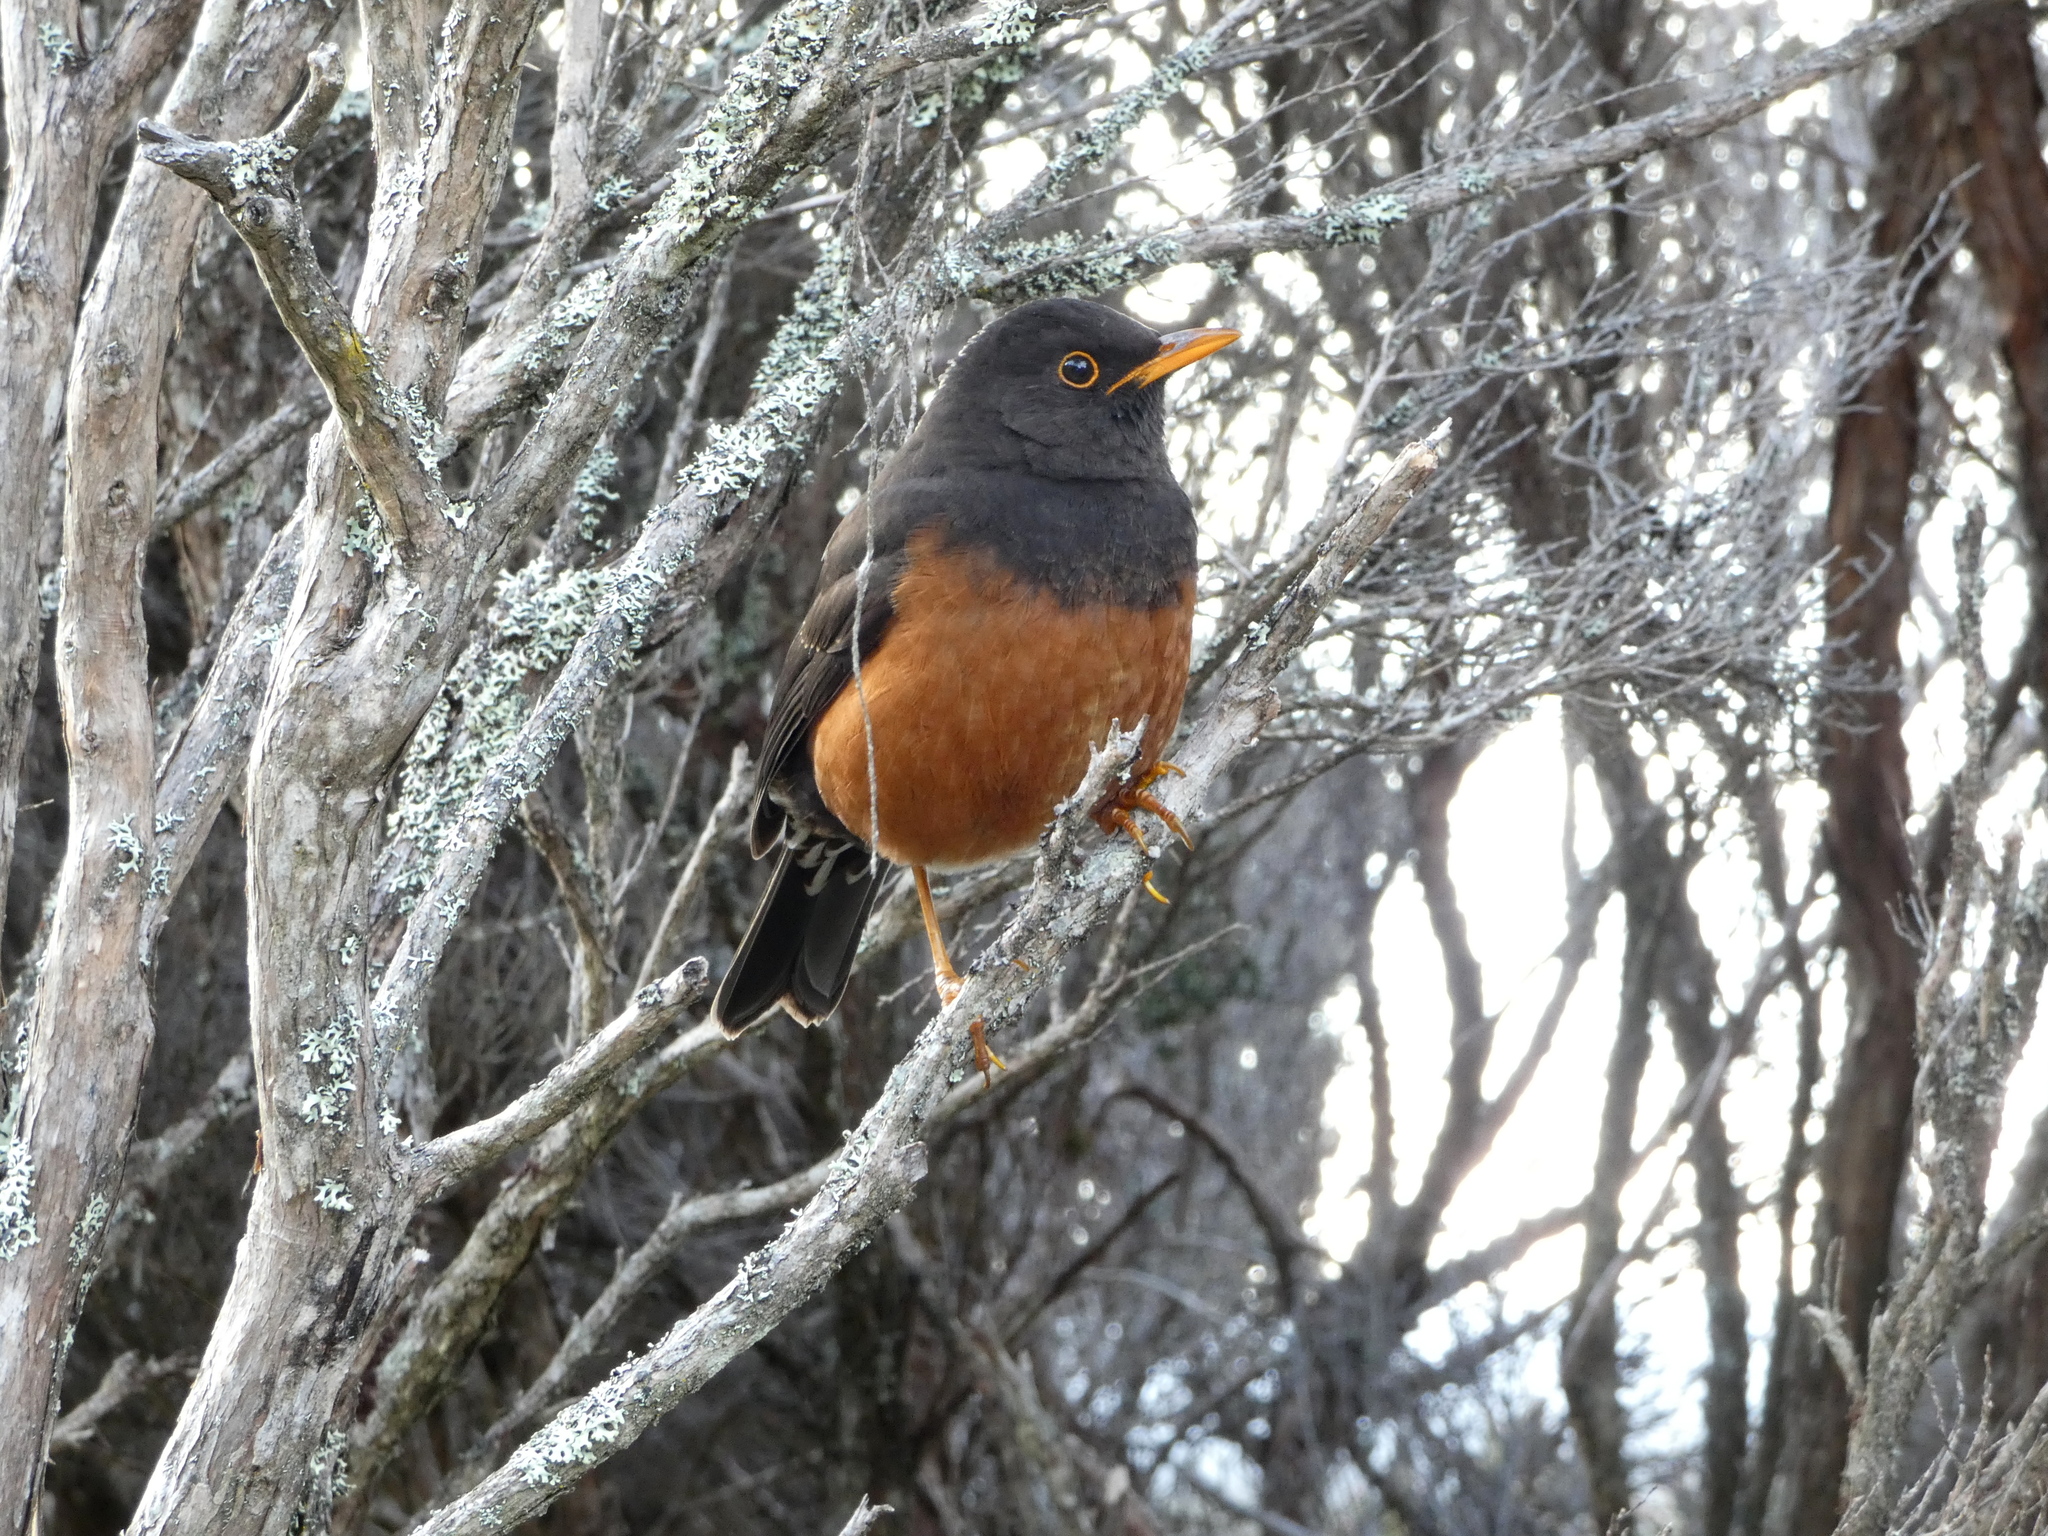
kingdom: Animalia
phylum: Chordata
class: Aves
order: Passeriformes
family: Turdidae
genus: Turdus
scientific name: Turdus poliocephalus
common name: Island thrush
